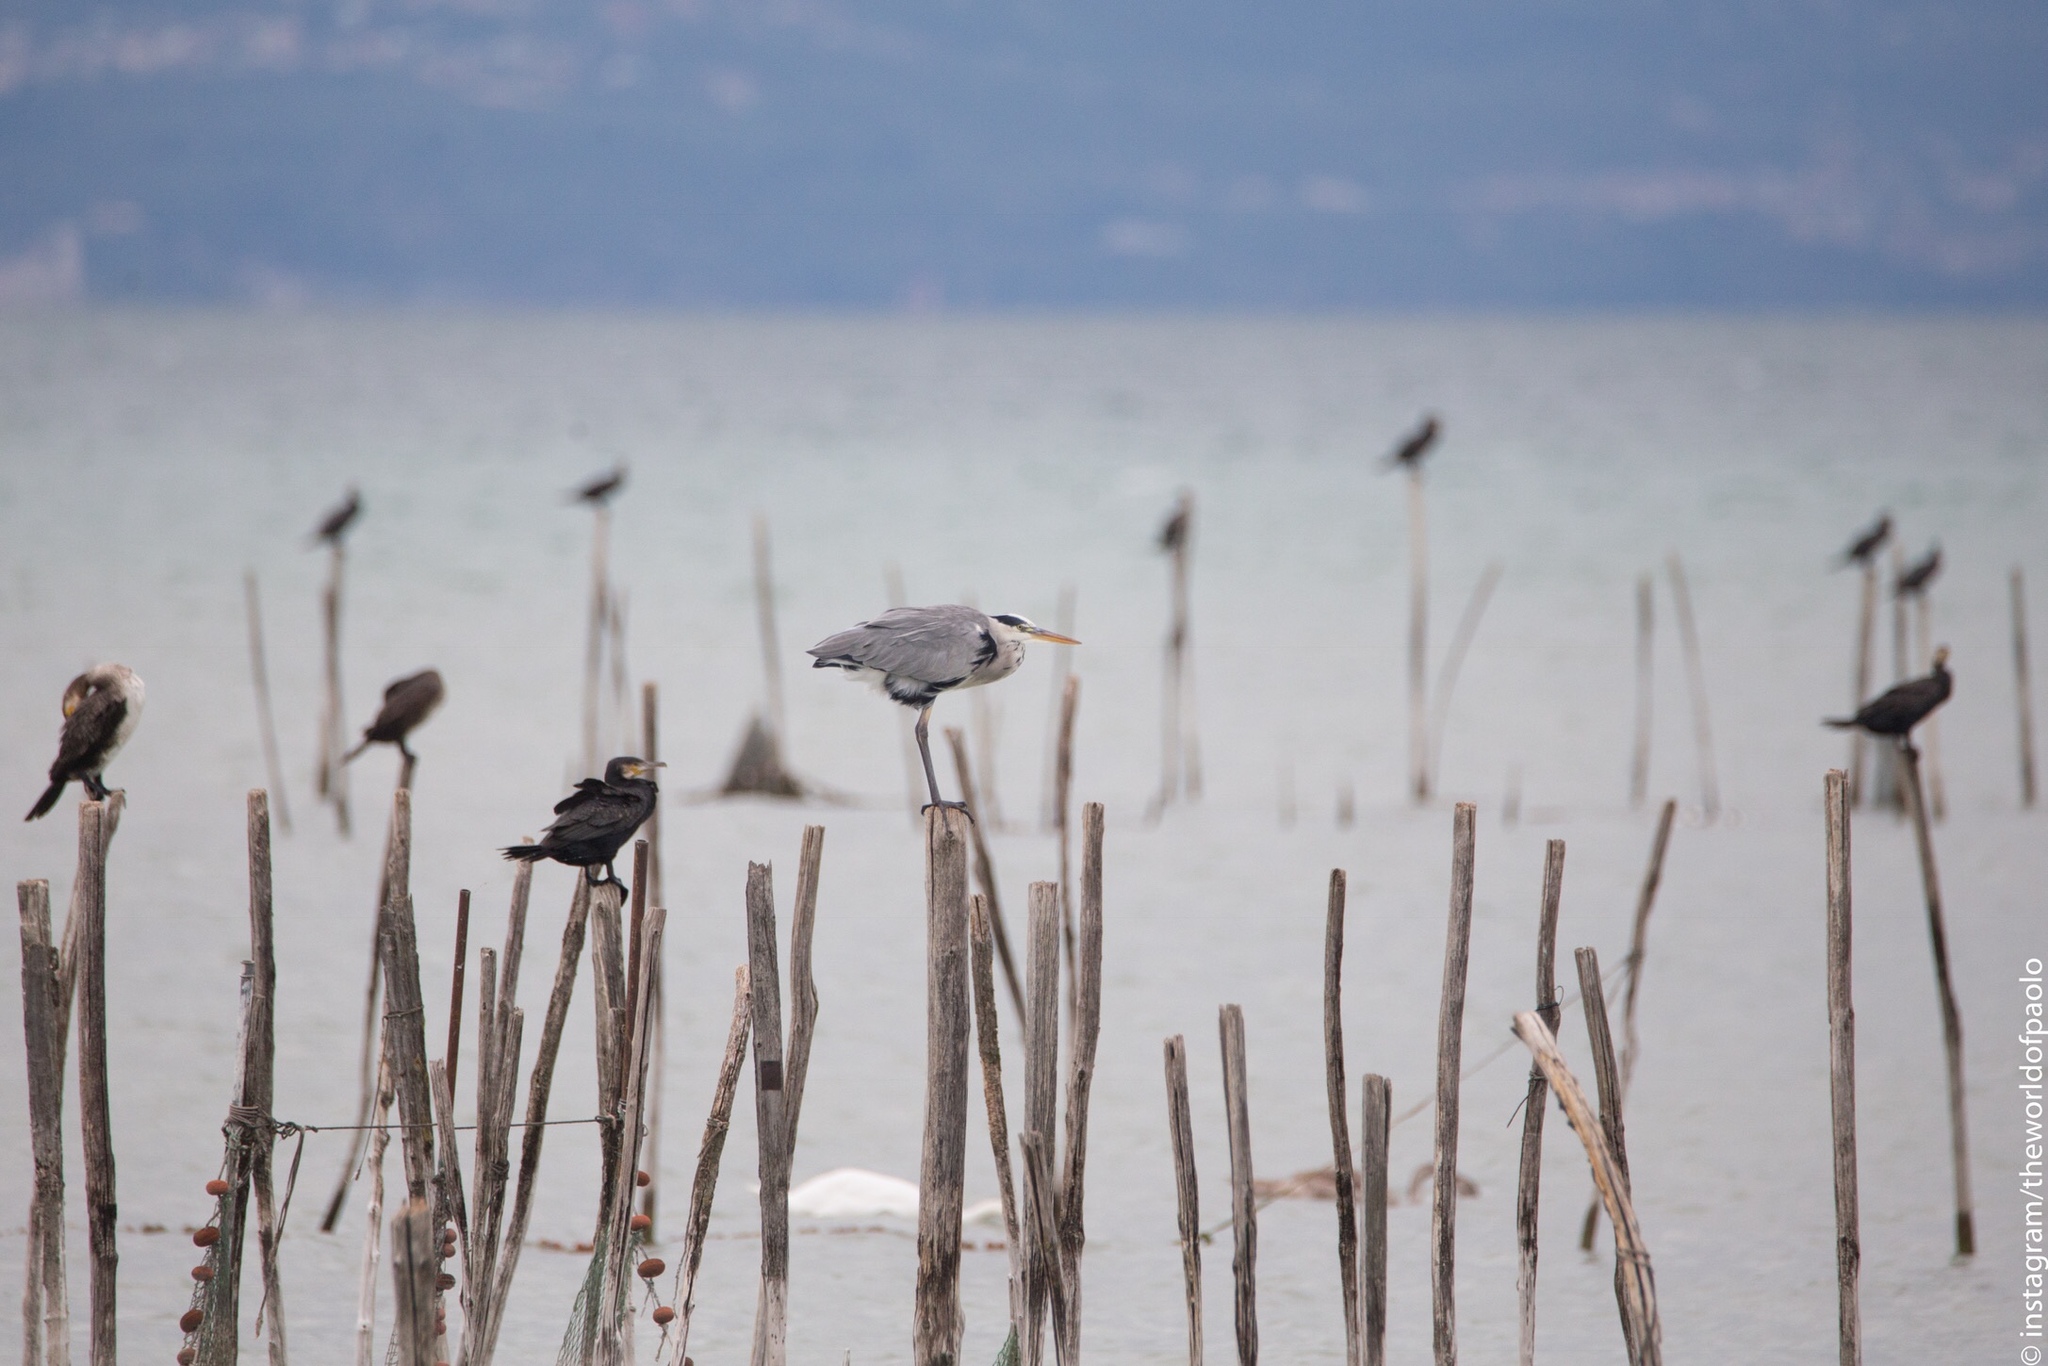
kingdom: Animalia
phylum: Chordata
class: Aves
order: Pelecaniformes
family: Ardeidae
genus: Ardea
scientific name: Ardea cinerea
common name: Grey heron
